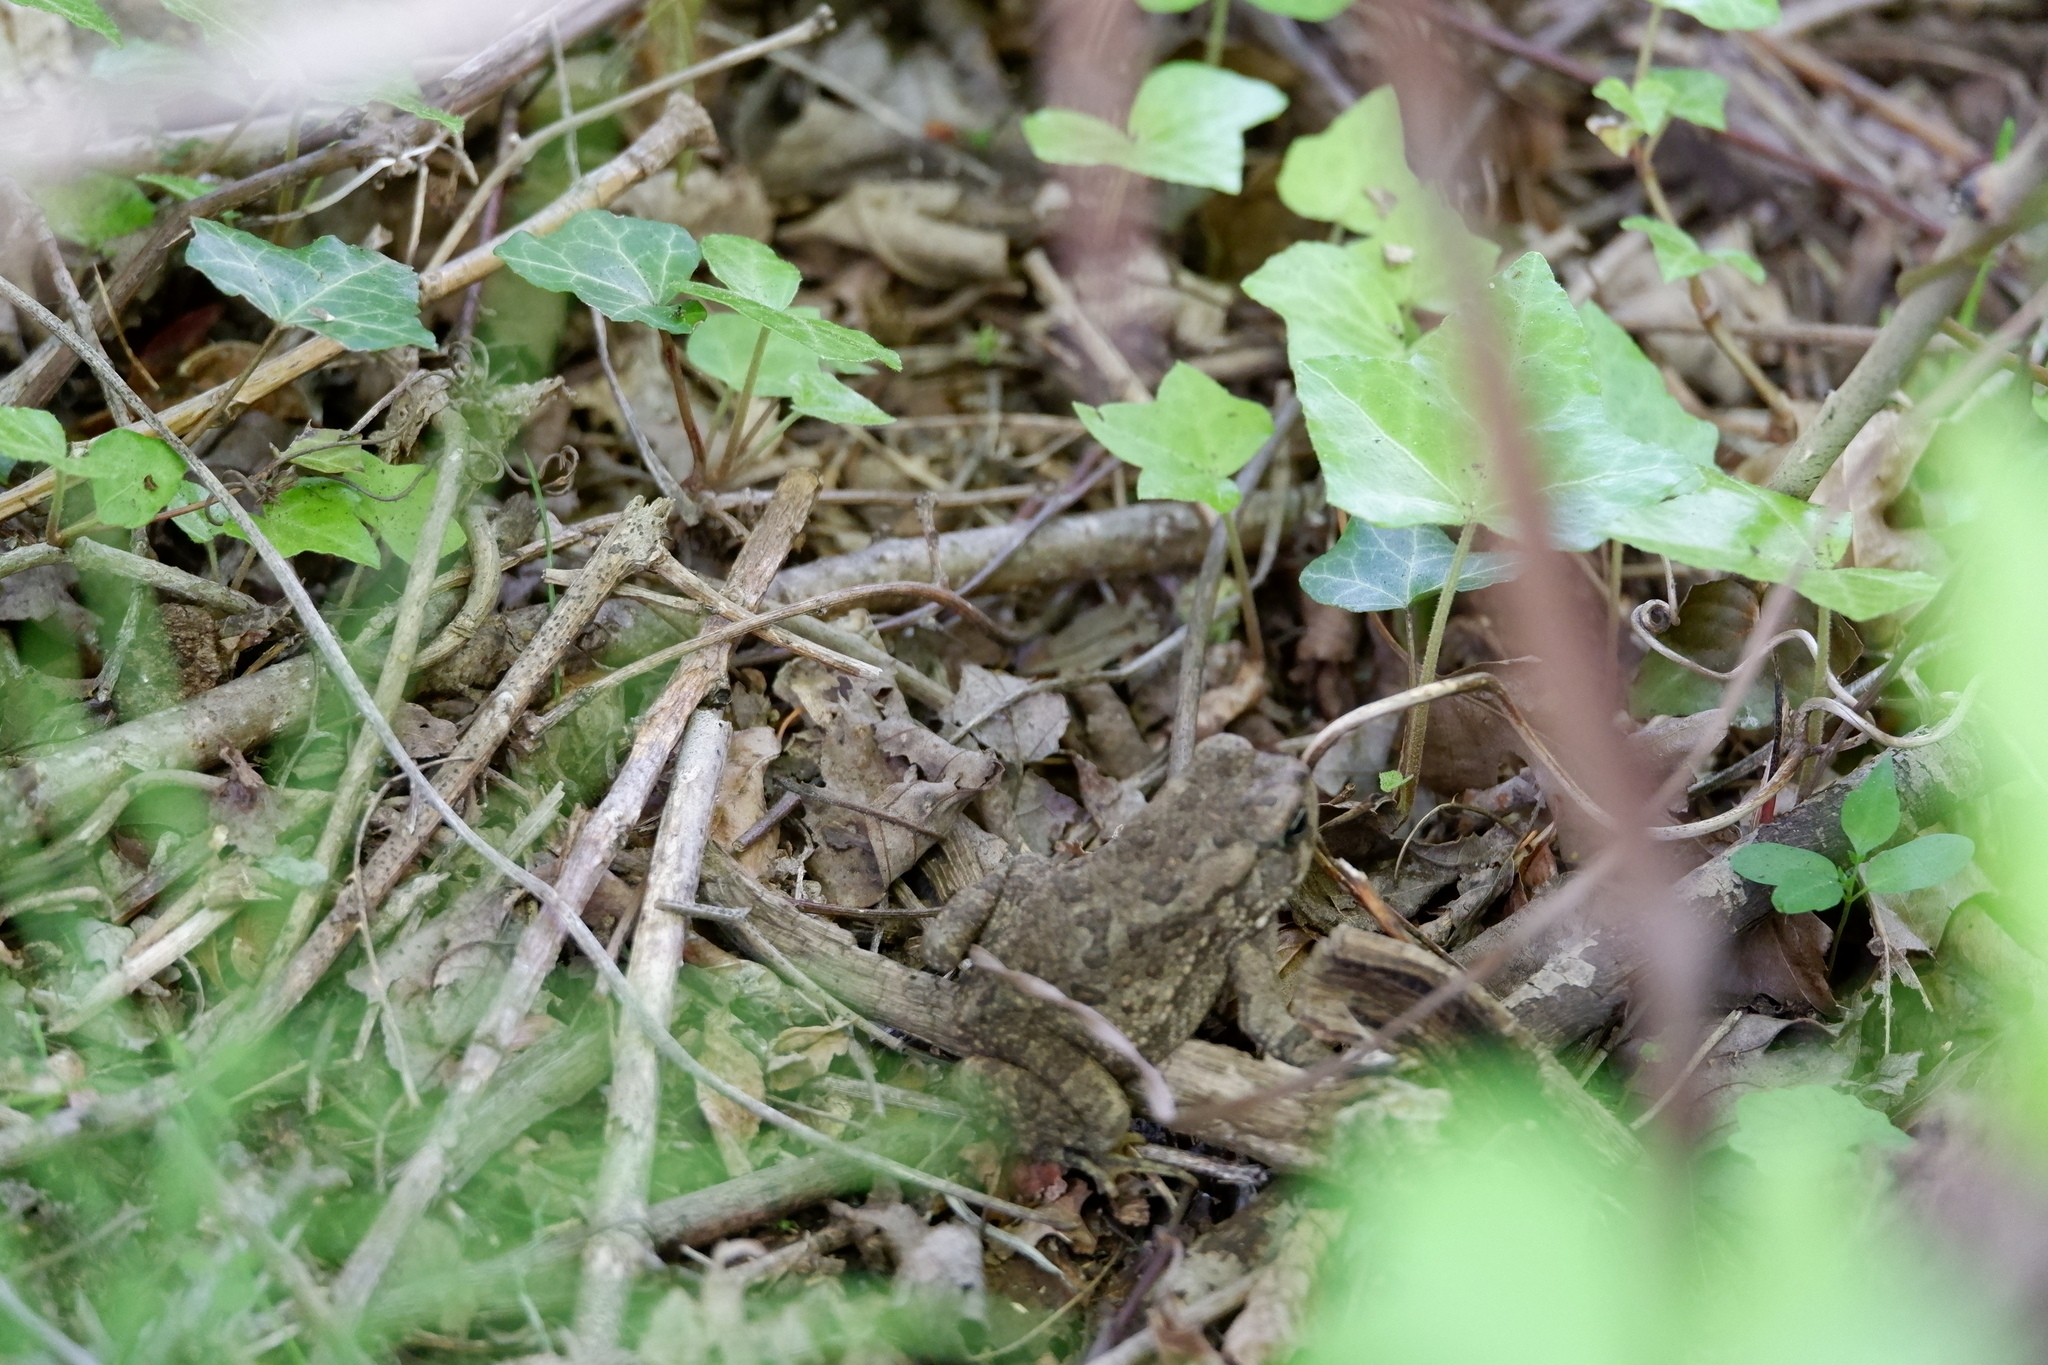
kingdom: Animalia
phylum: Chordata
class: Amphibia
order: Anura
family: Bufonidae
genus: Anaxyrus
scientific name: Anaxyrus fowleri
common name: Fowler's toad
